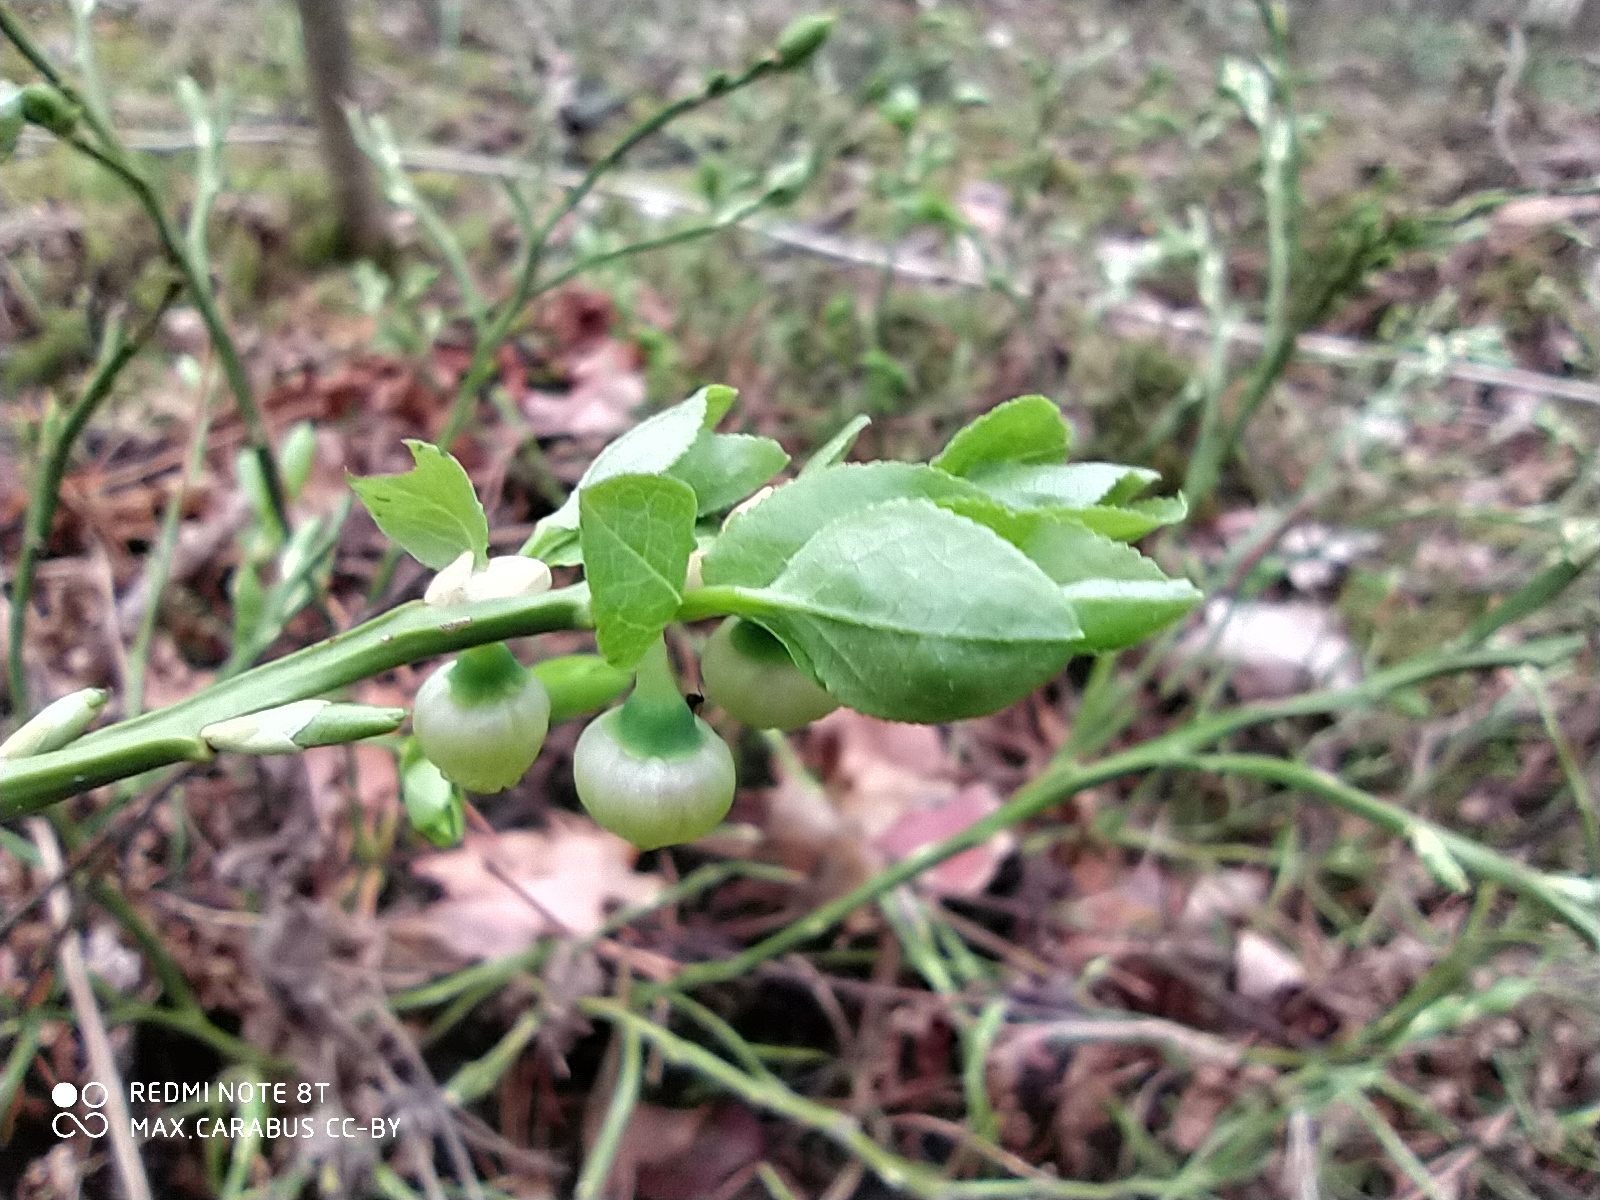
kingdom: Plantae
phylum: Tracheophyta
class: Magnoliopsida
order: Ericales
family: Ericaceae
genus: Vaccinium
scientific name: Vaccinium myrtillus
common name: Bilberry
